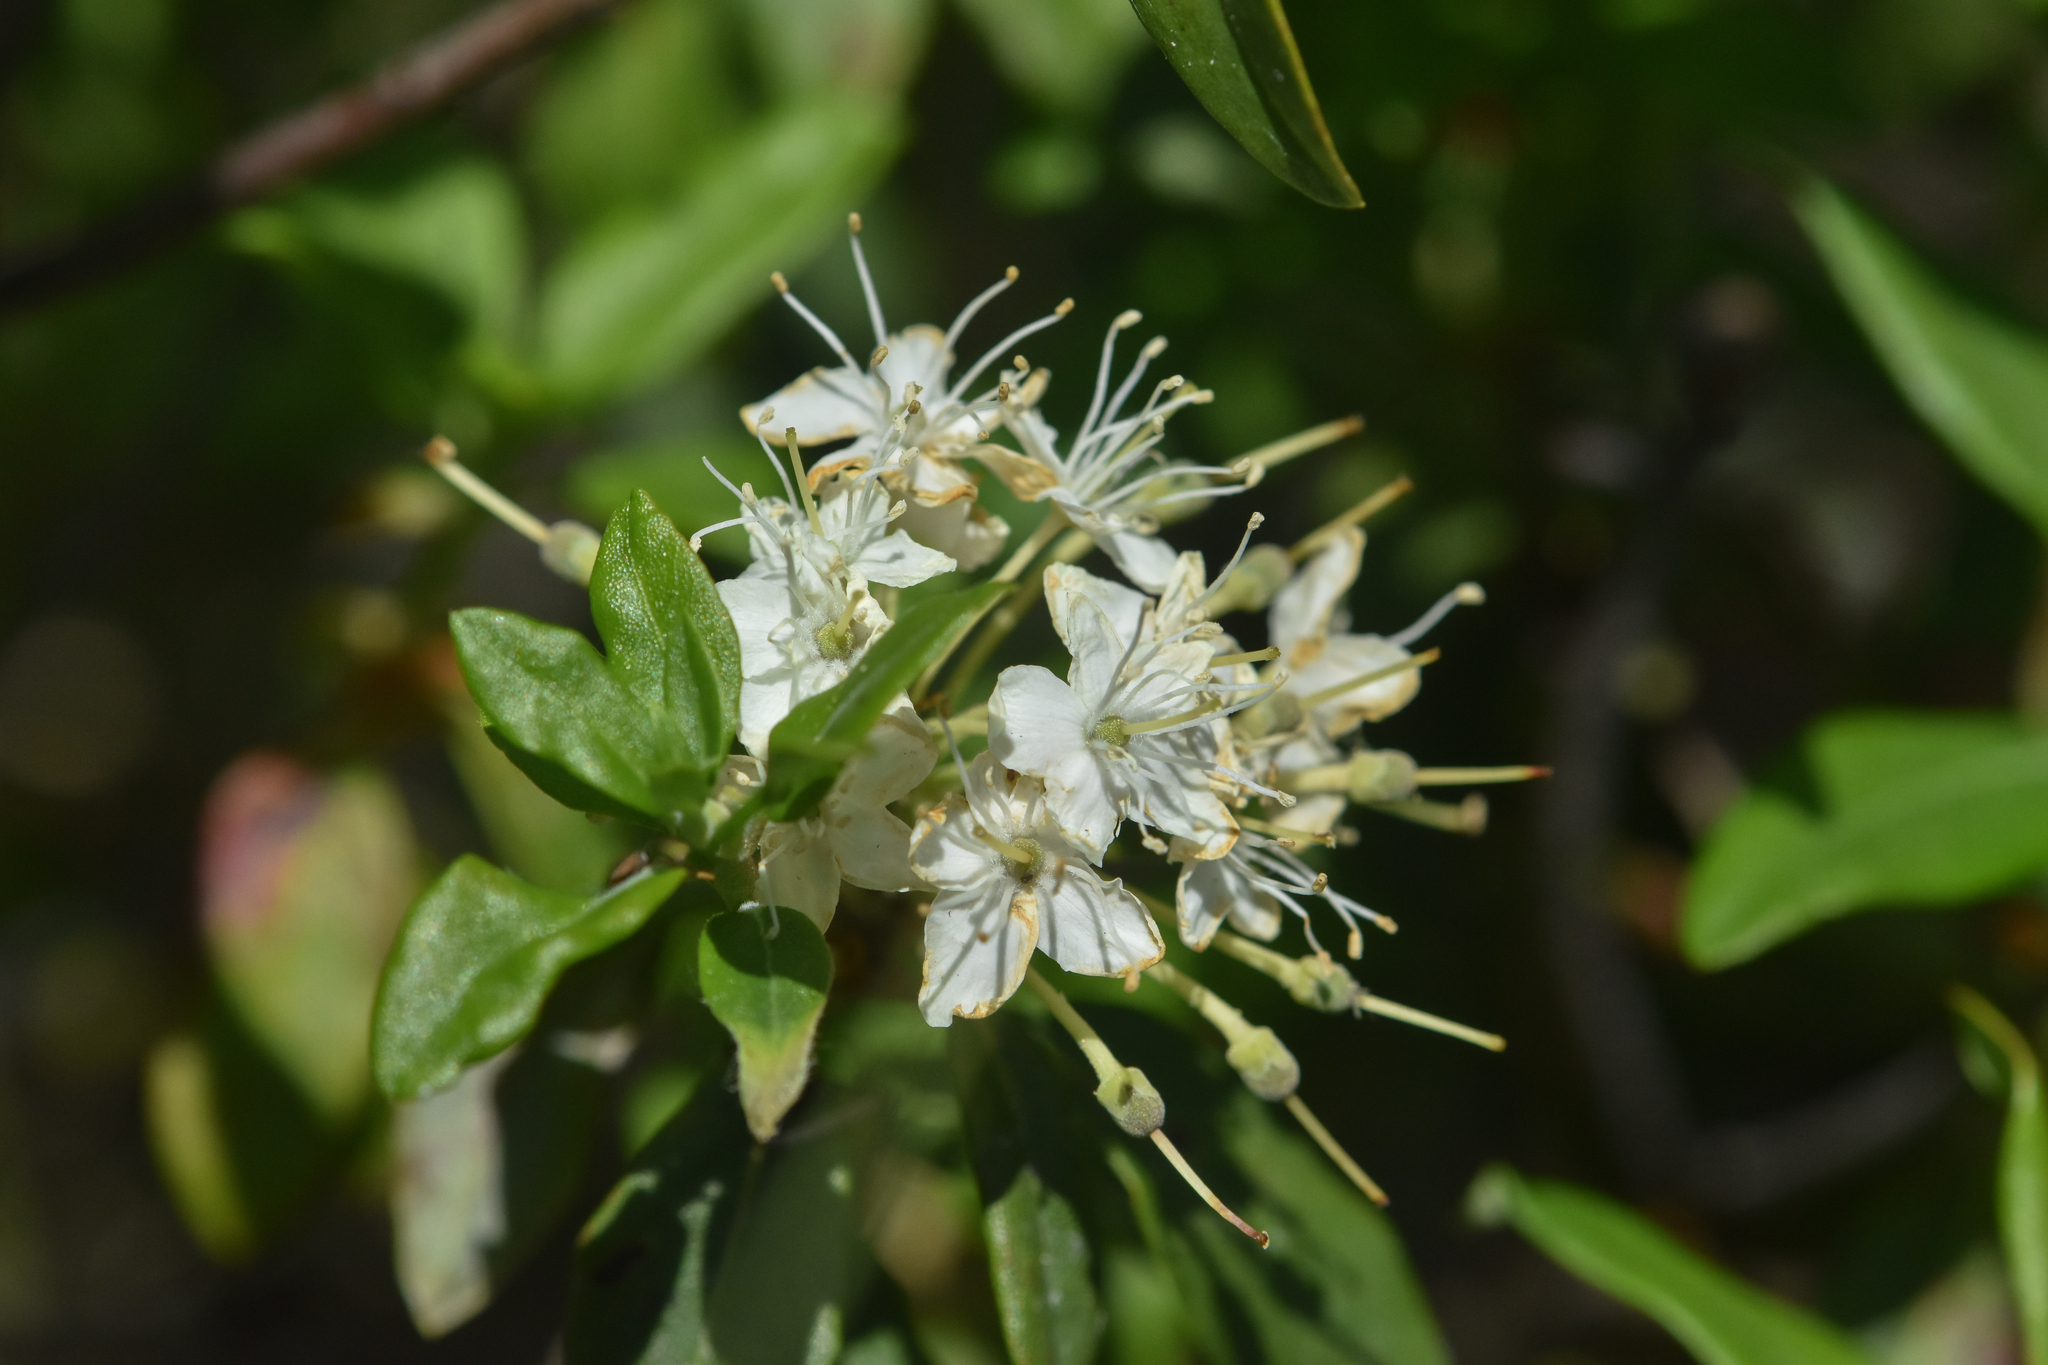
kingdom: Plantae
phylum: Tracheophyta
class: Magnoliopsida
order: Ericales
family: Ericaceae
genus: Rhododendron
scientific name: Rhododendron columbianum
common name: Western labrador tea
